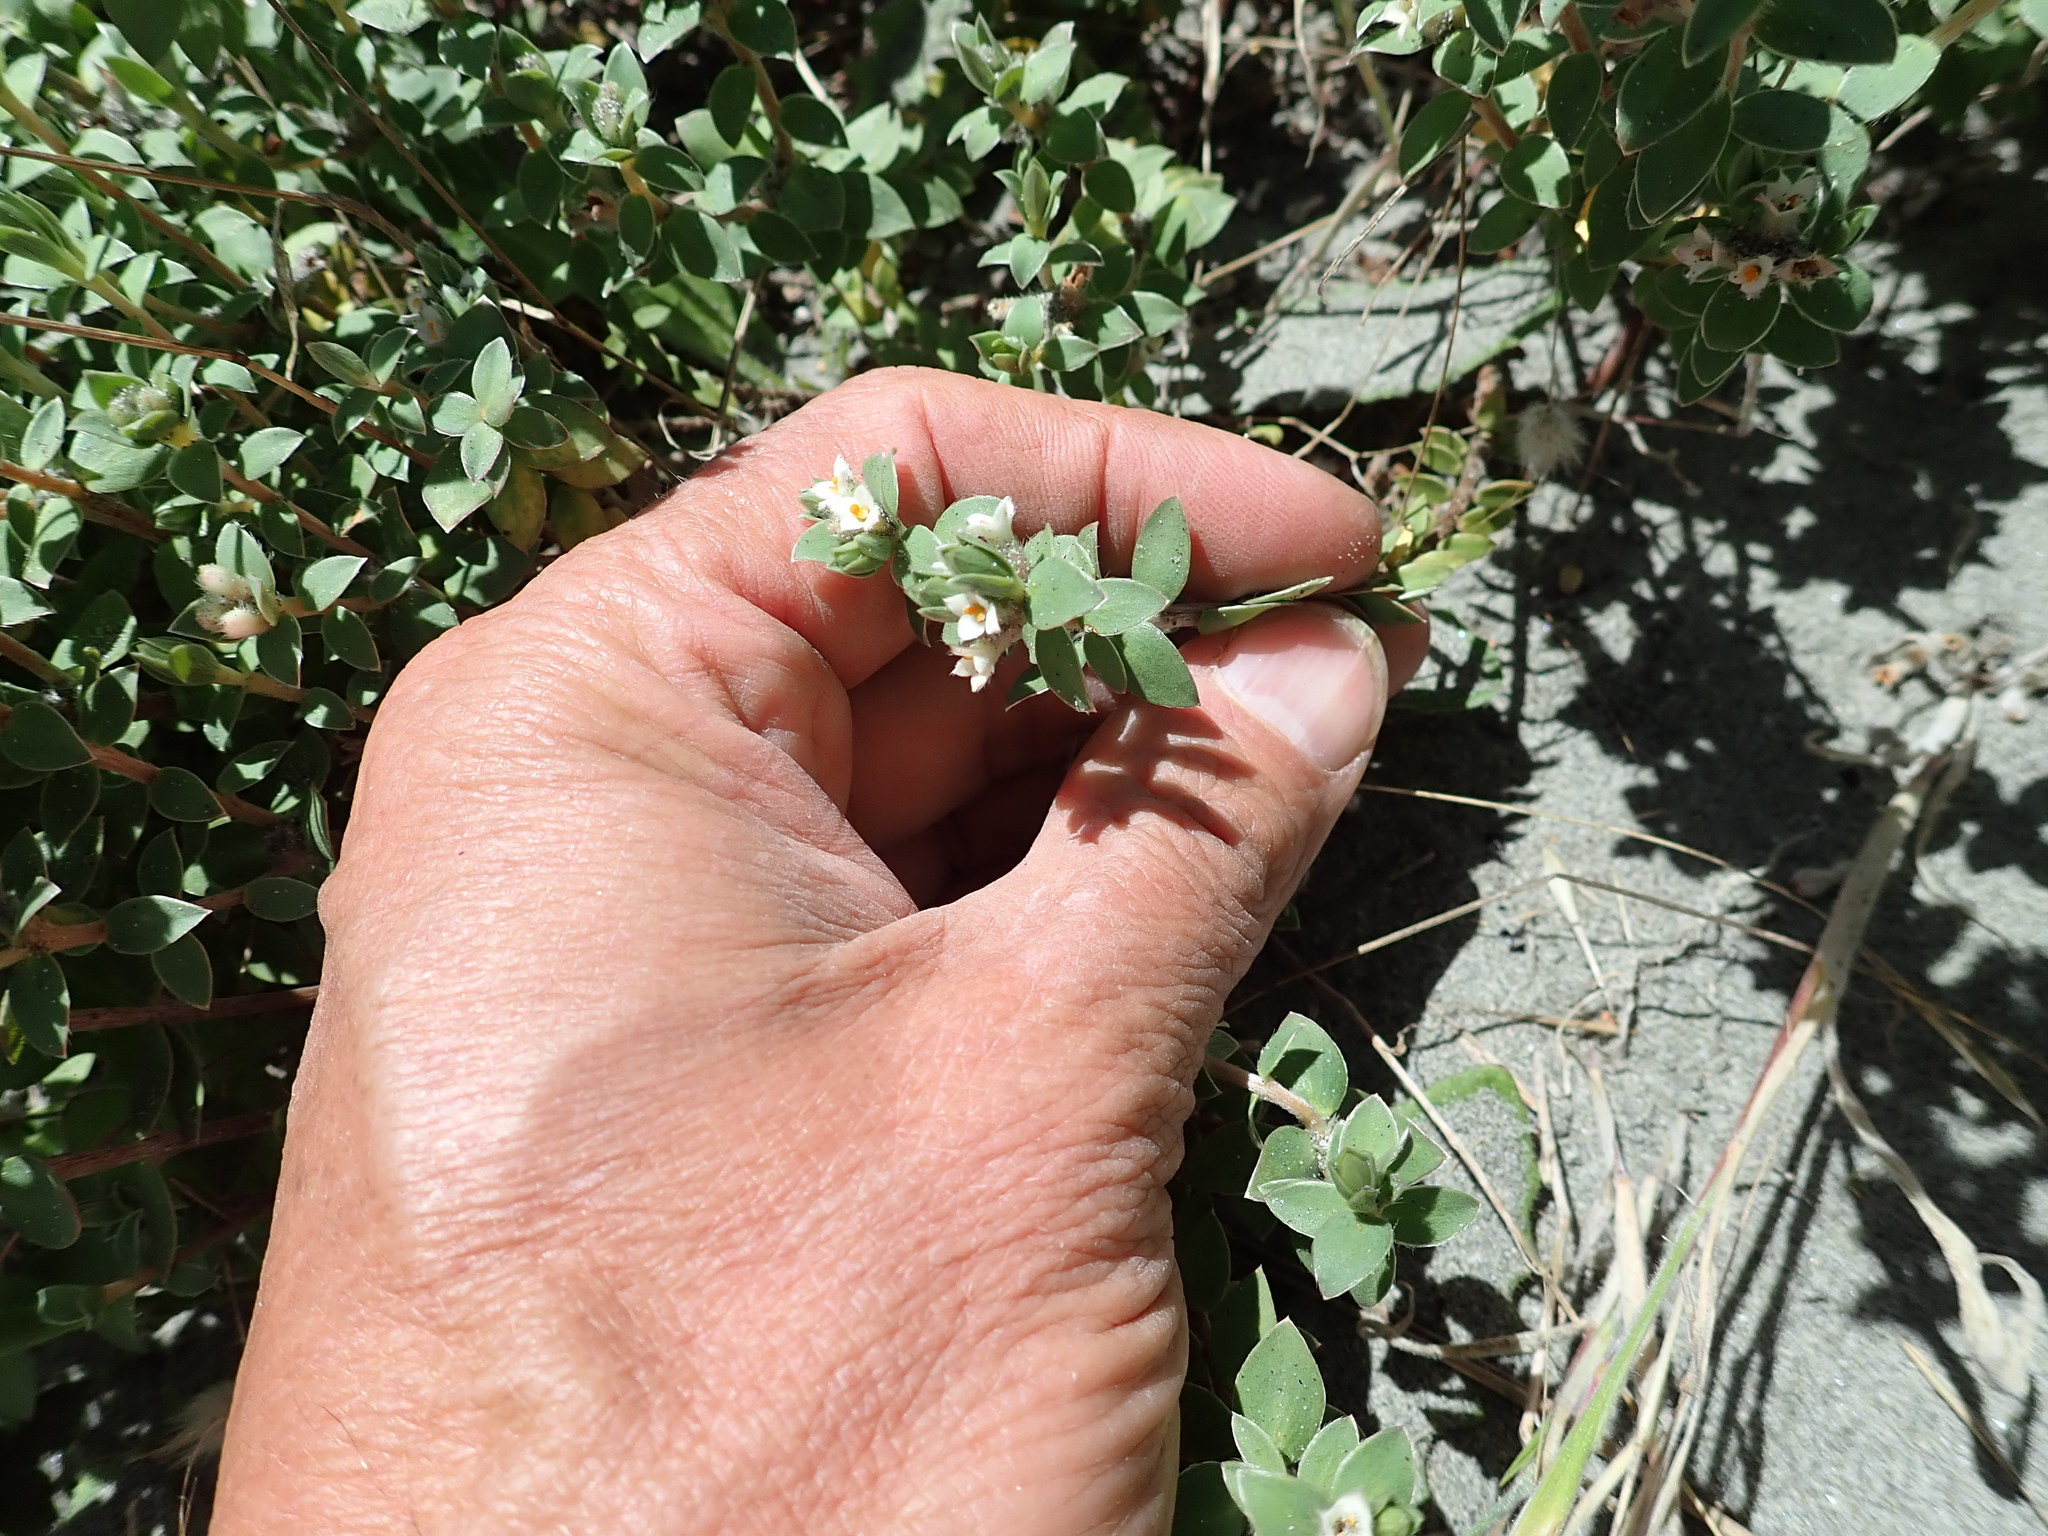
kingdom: Plantae
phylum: Tracheophyta
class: Magnoliopsida
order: Malvales
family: Thymelaeaceae
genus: Pimelea
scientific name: Pimelea villosa
